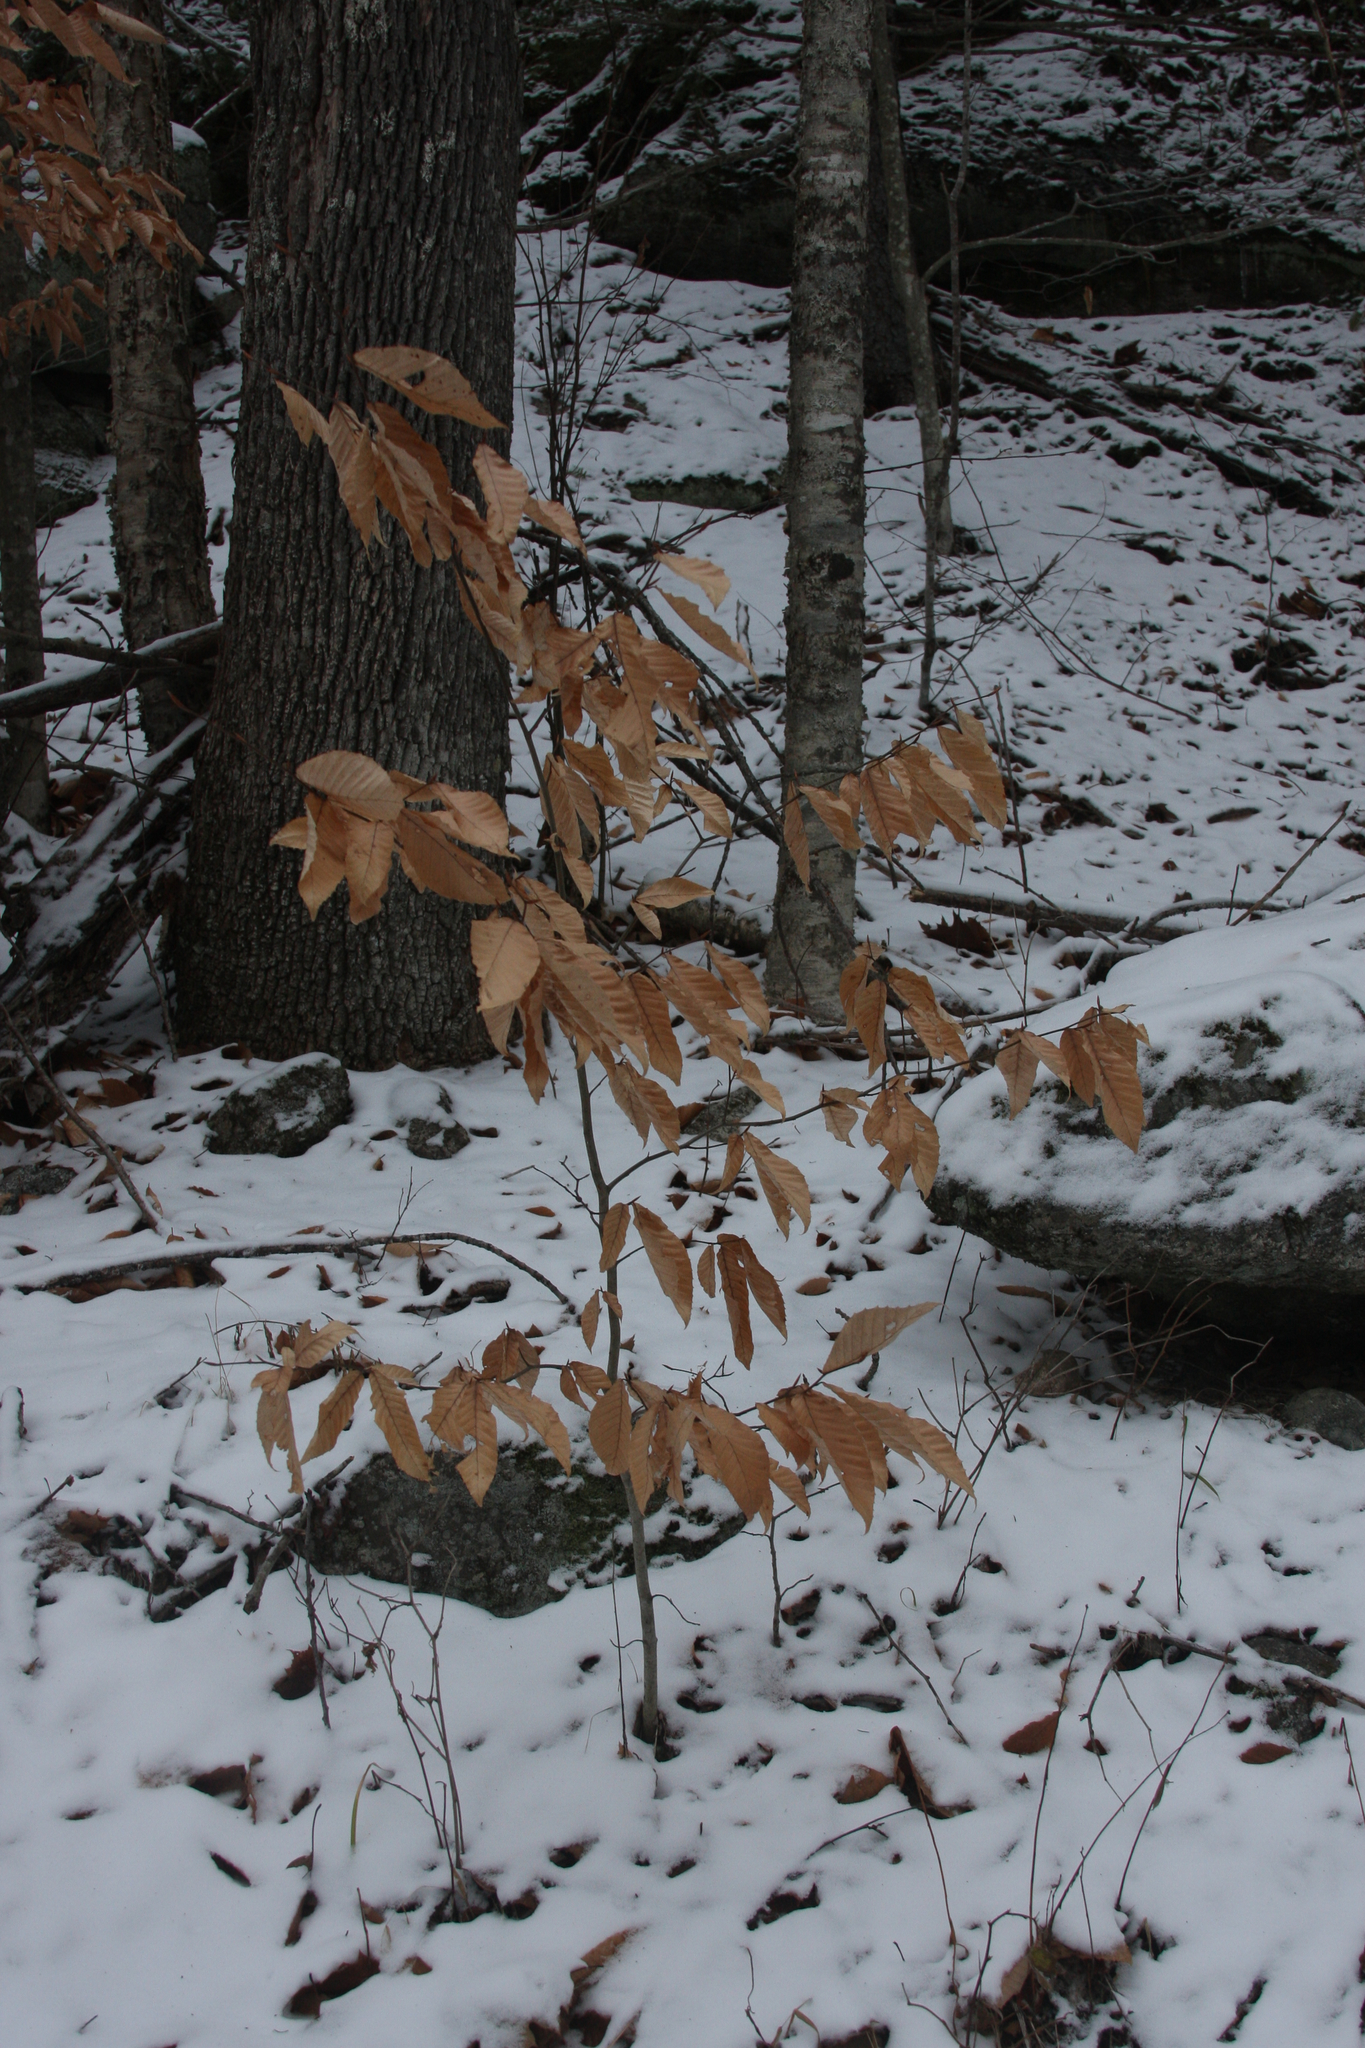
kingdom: Plantae
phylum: Tracheophyta
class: Magnoliopsida
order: Fagales
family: Fagaceae
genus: Fagus
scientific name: Fagus grandifolia
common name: American beech
